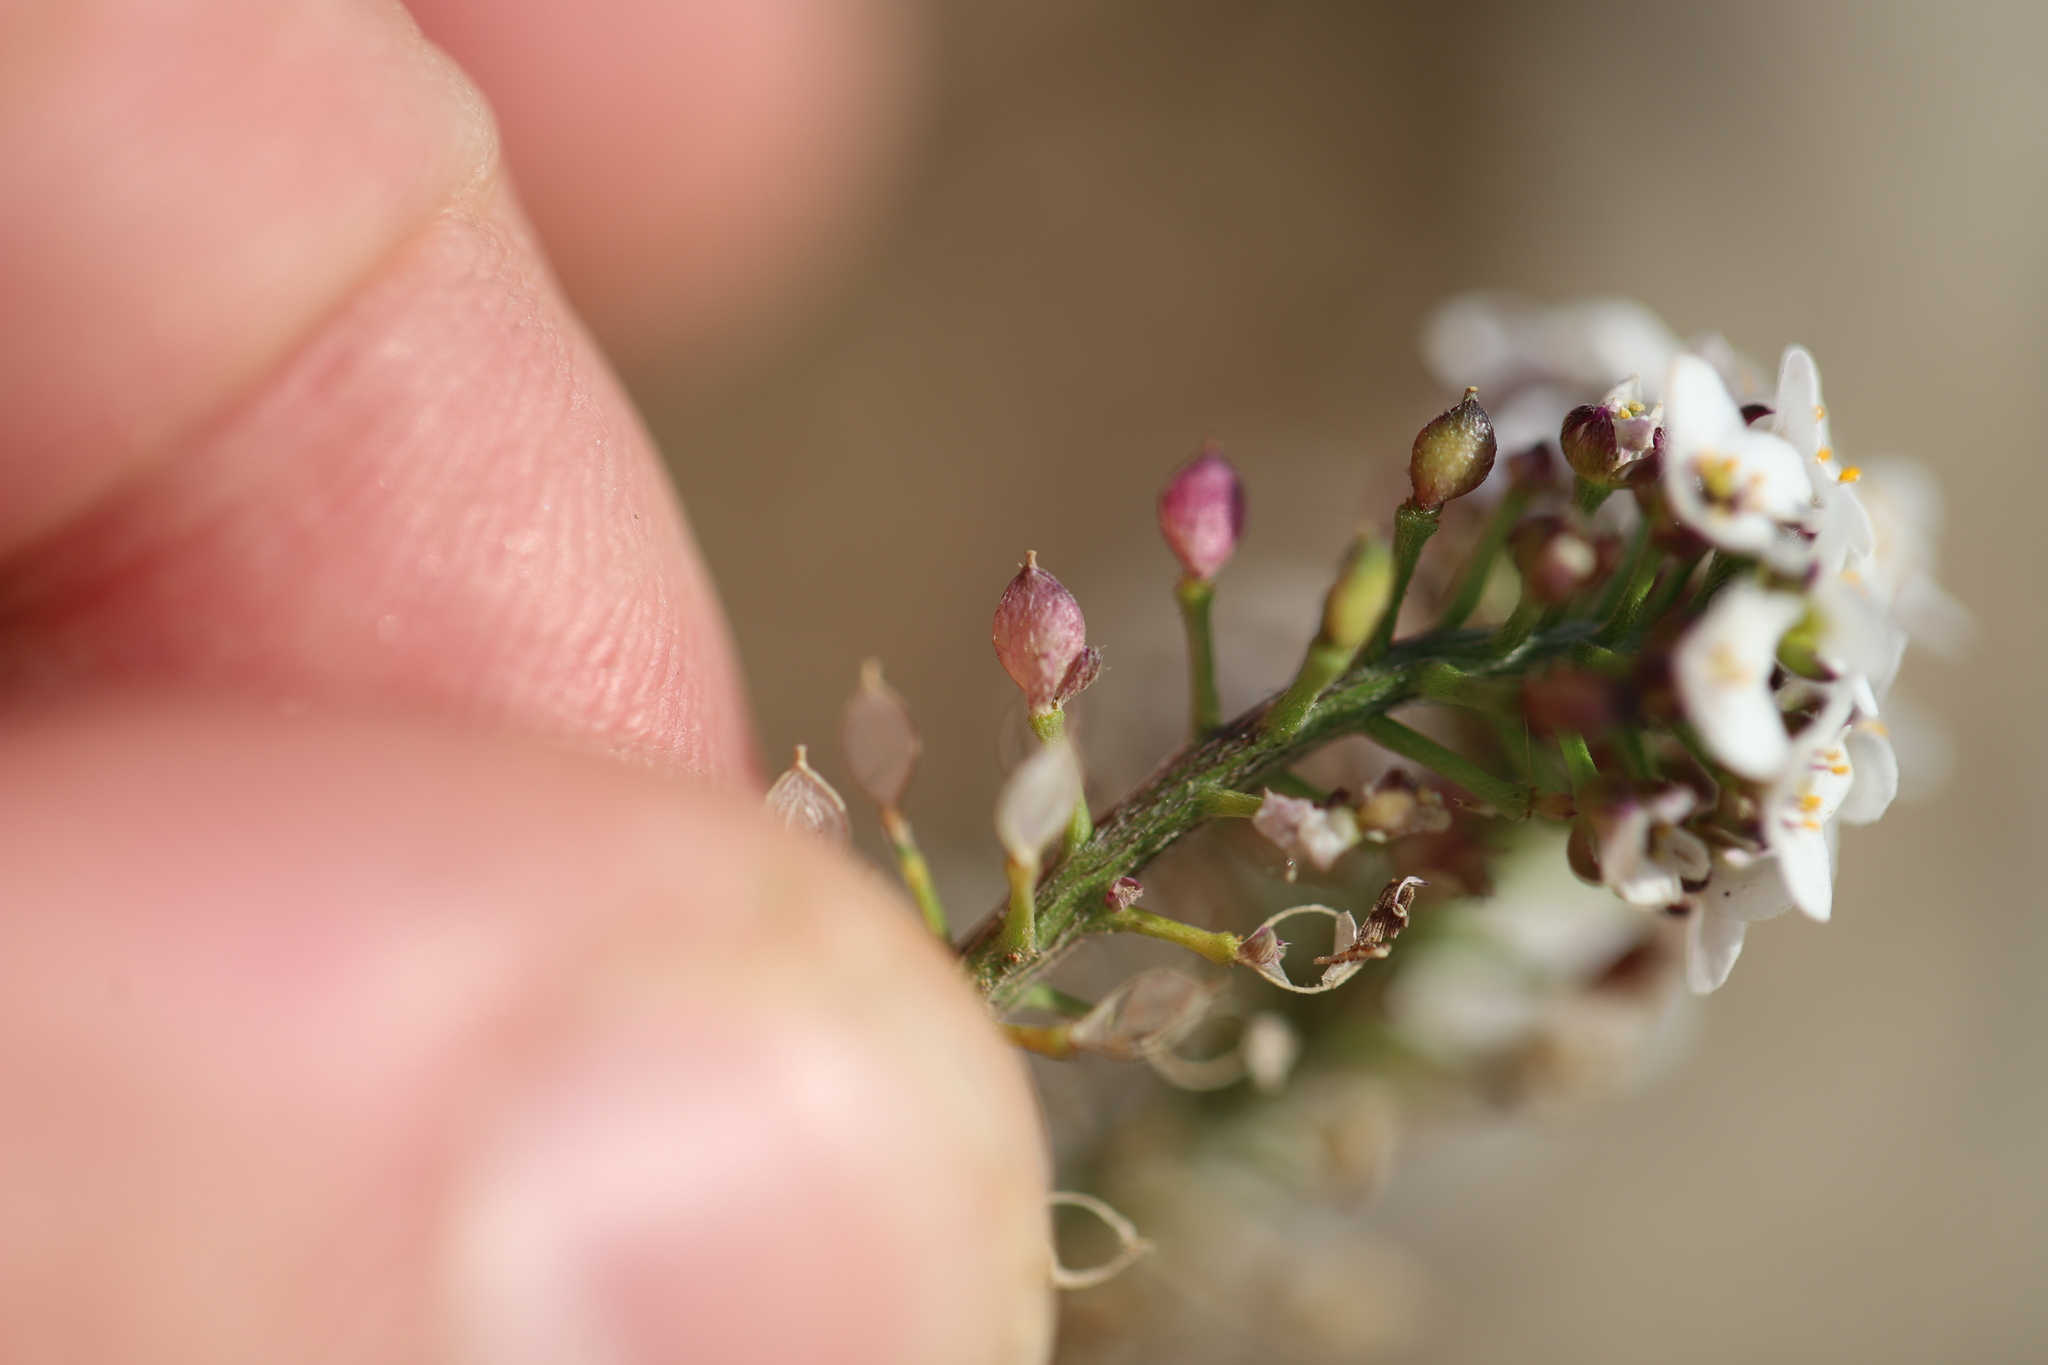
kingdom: Plantae
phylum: Tracheophyta
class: Magnoliopsida
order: Brassicales
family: Brassicaceae
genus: Lobularia
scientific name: Lobularia maritima
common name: Sweet alison
